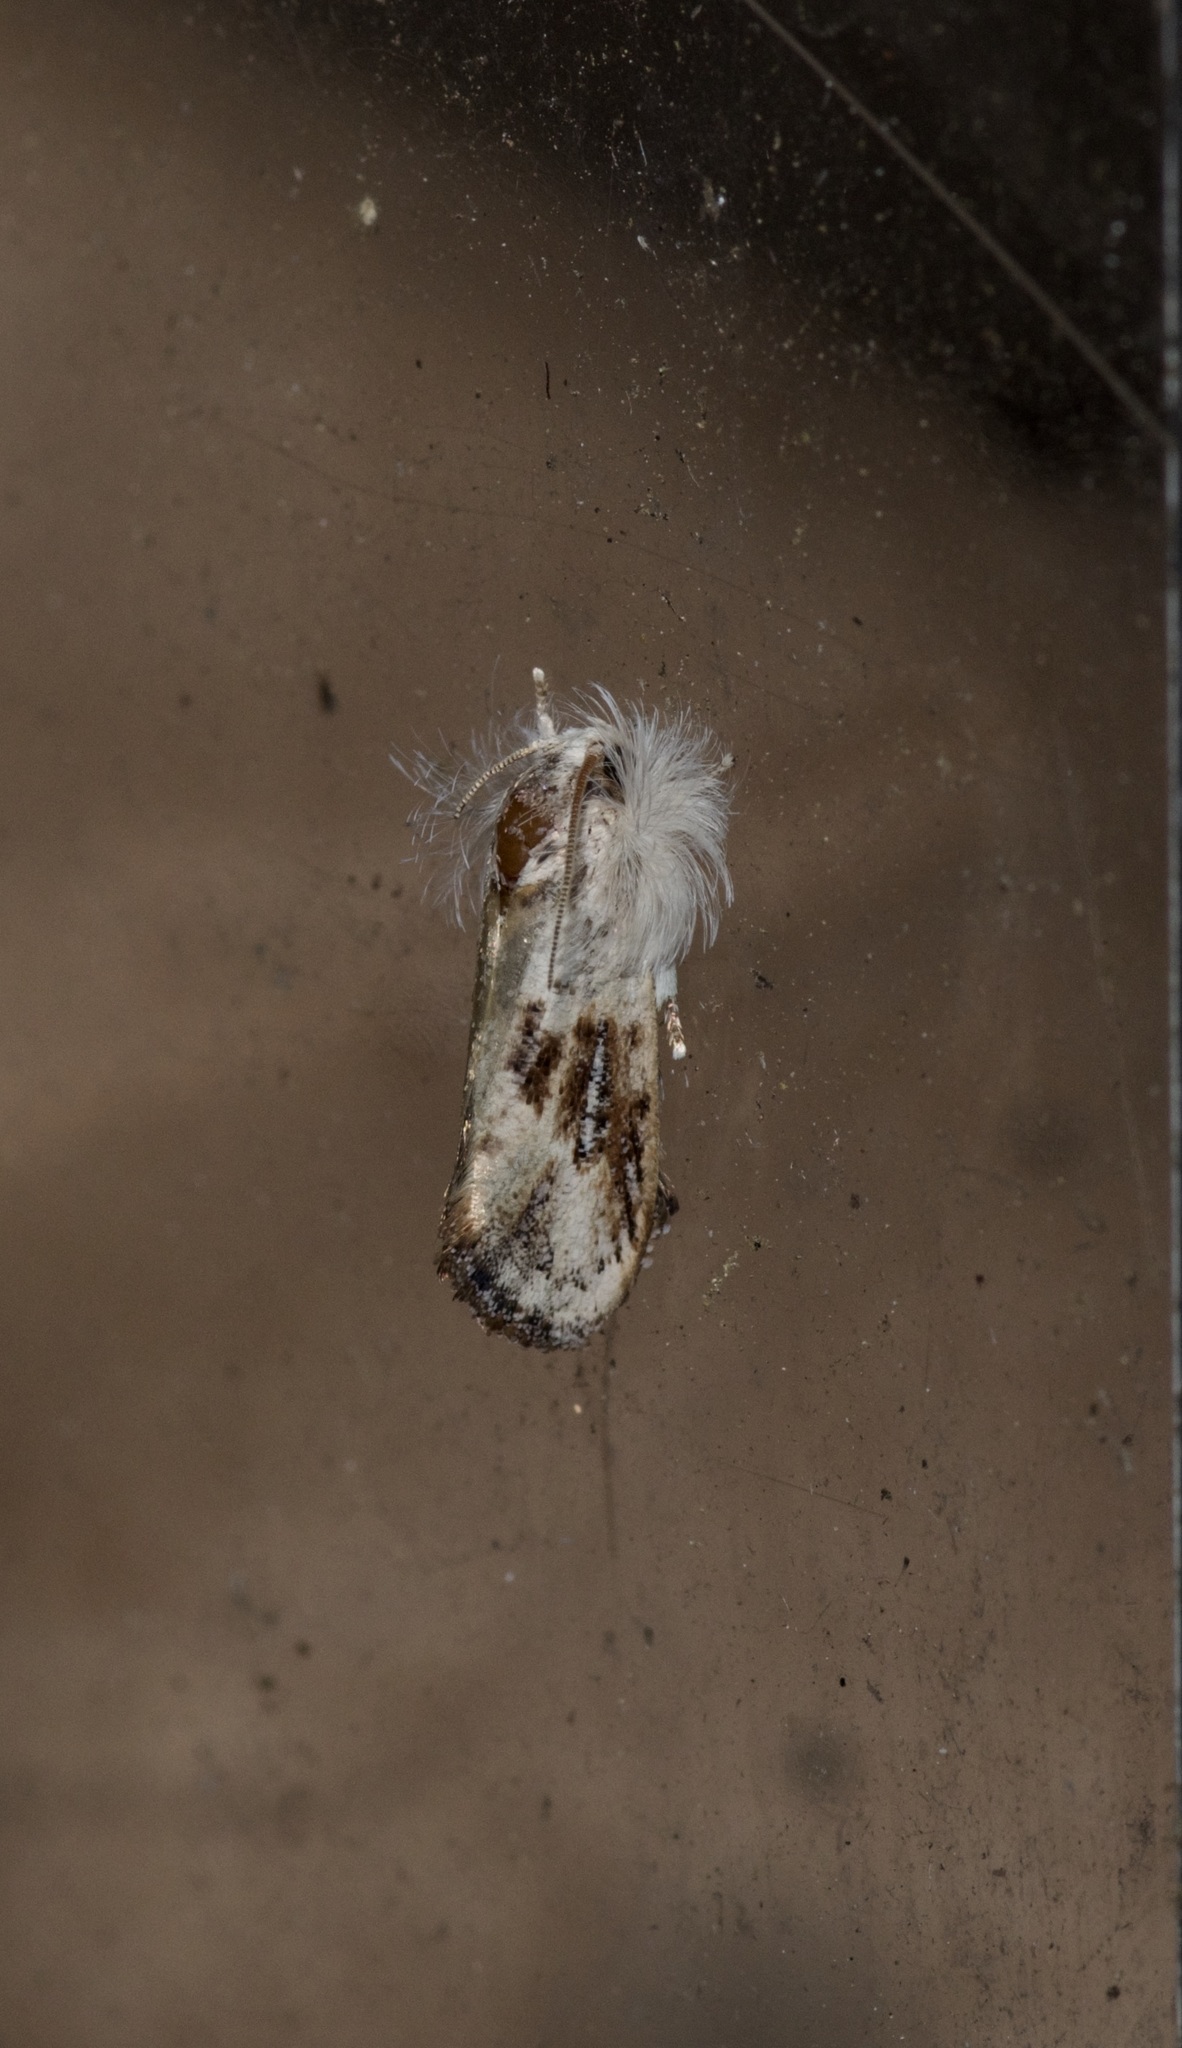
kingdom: Animalia
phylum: Arthropoda
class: Insecta
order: Lepidoptera
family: Tineidae
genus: Acrolophus
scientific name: Acrolophus mycetophagus
